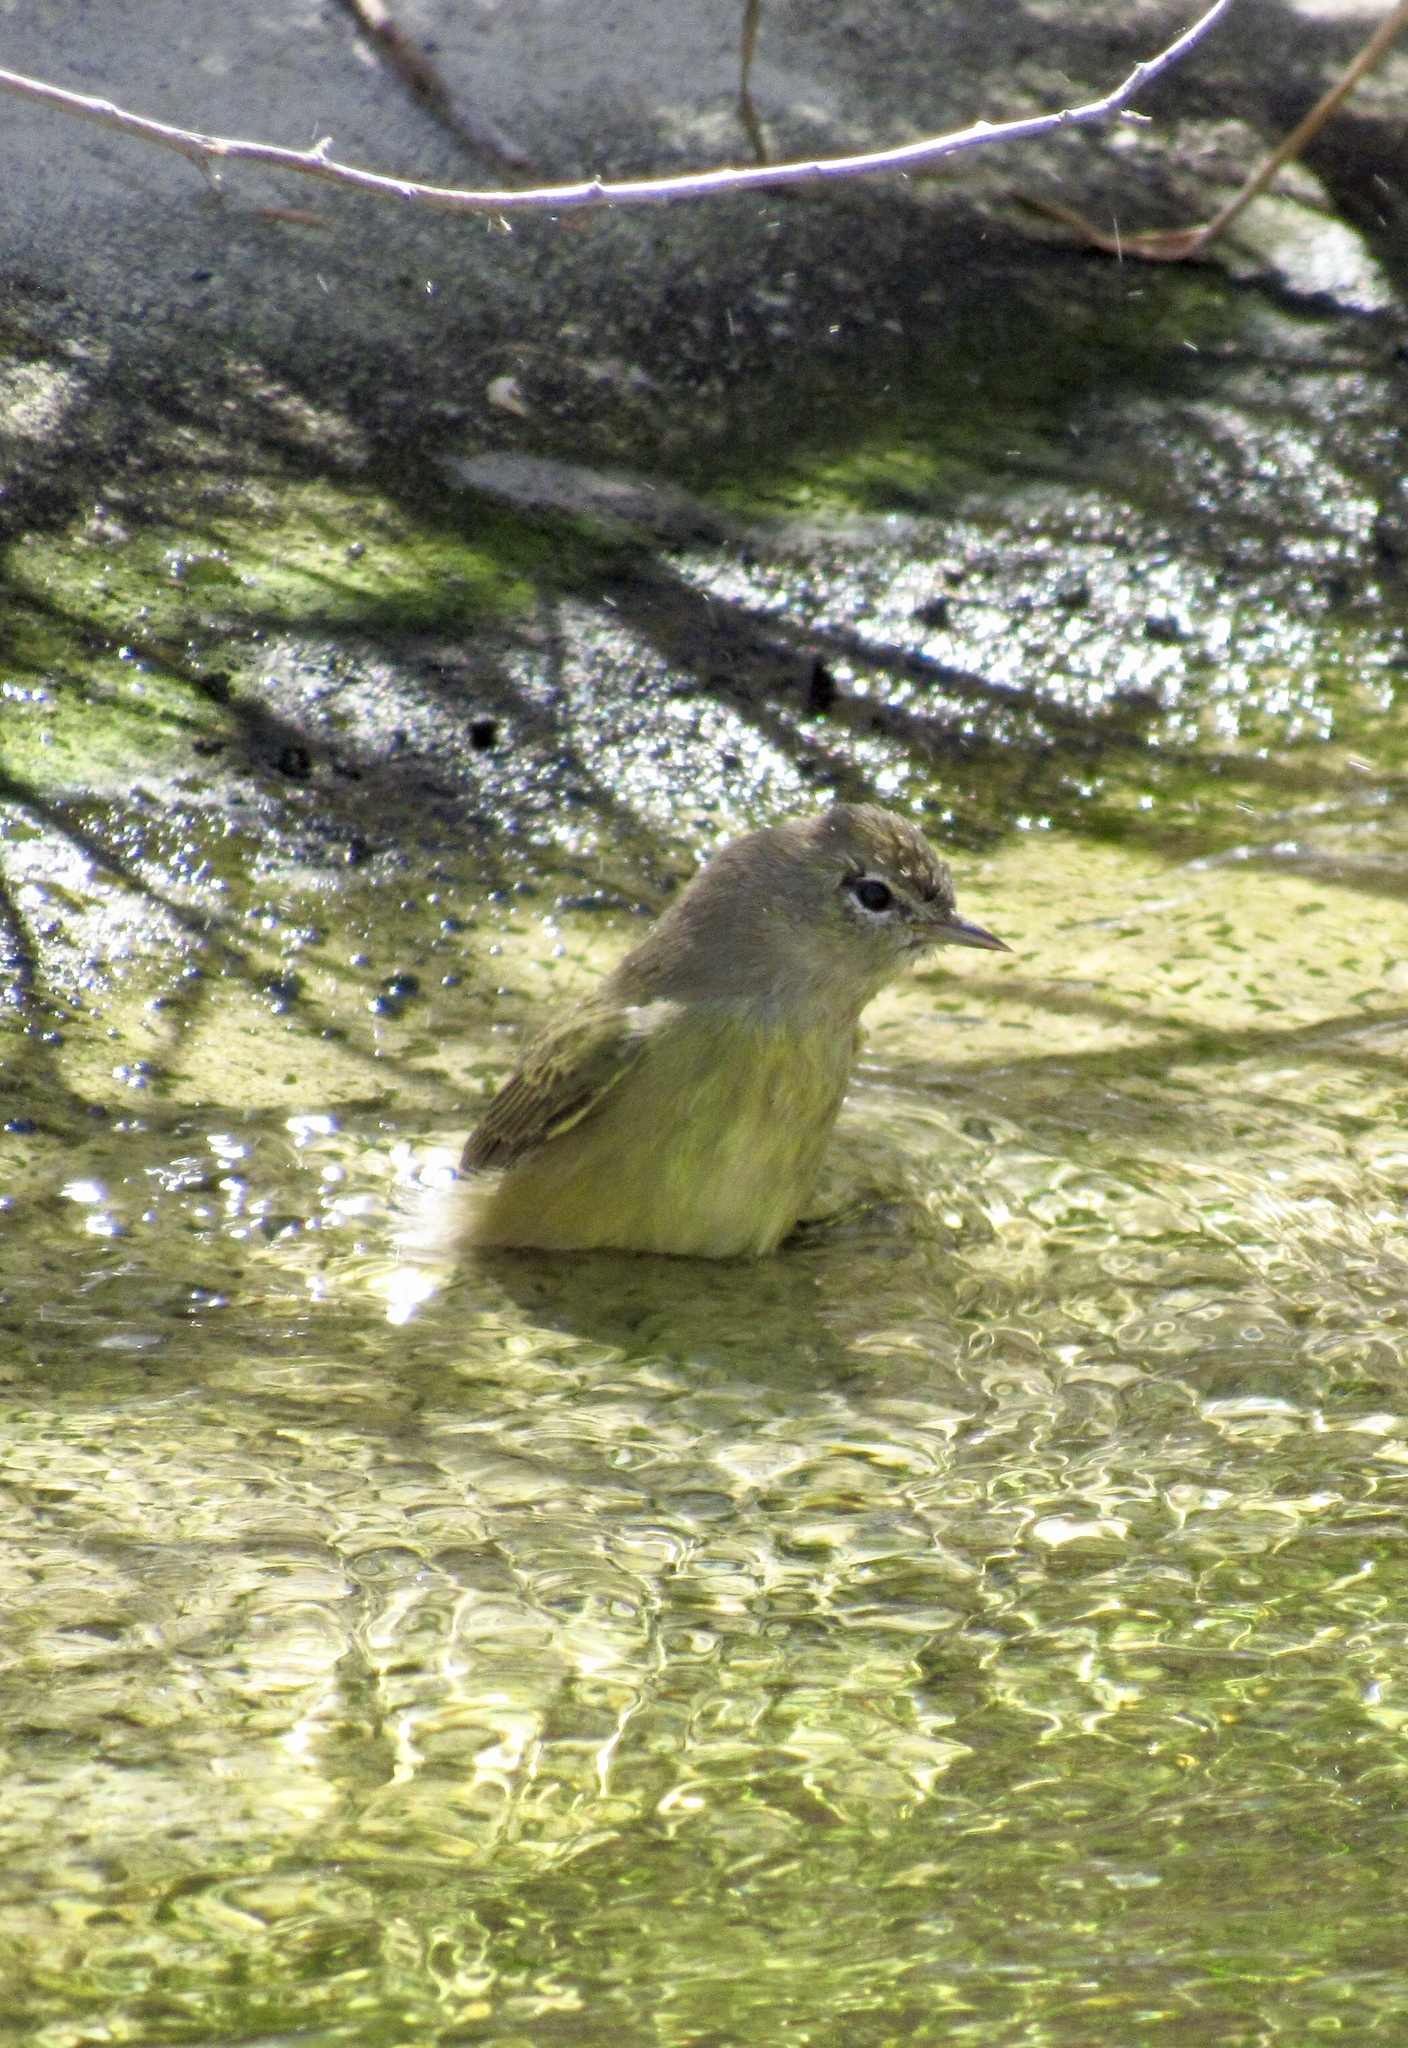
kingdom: Animalia
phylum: Chordata
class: Aves
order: Passeriformes
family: Parulidae
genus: Leiothlypis
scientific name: Leiothlypis celata
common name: Orange-crowned warbler
